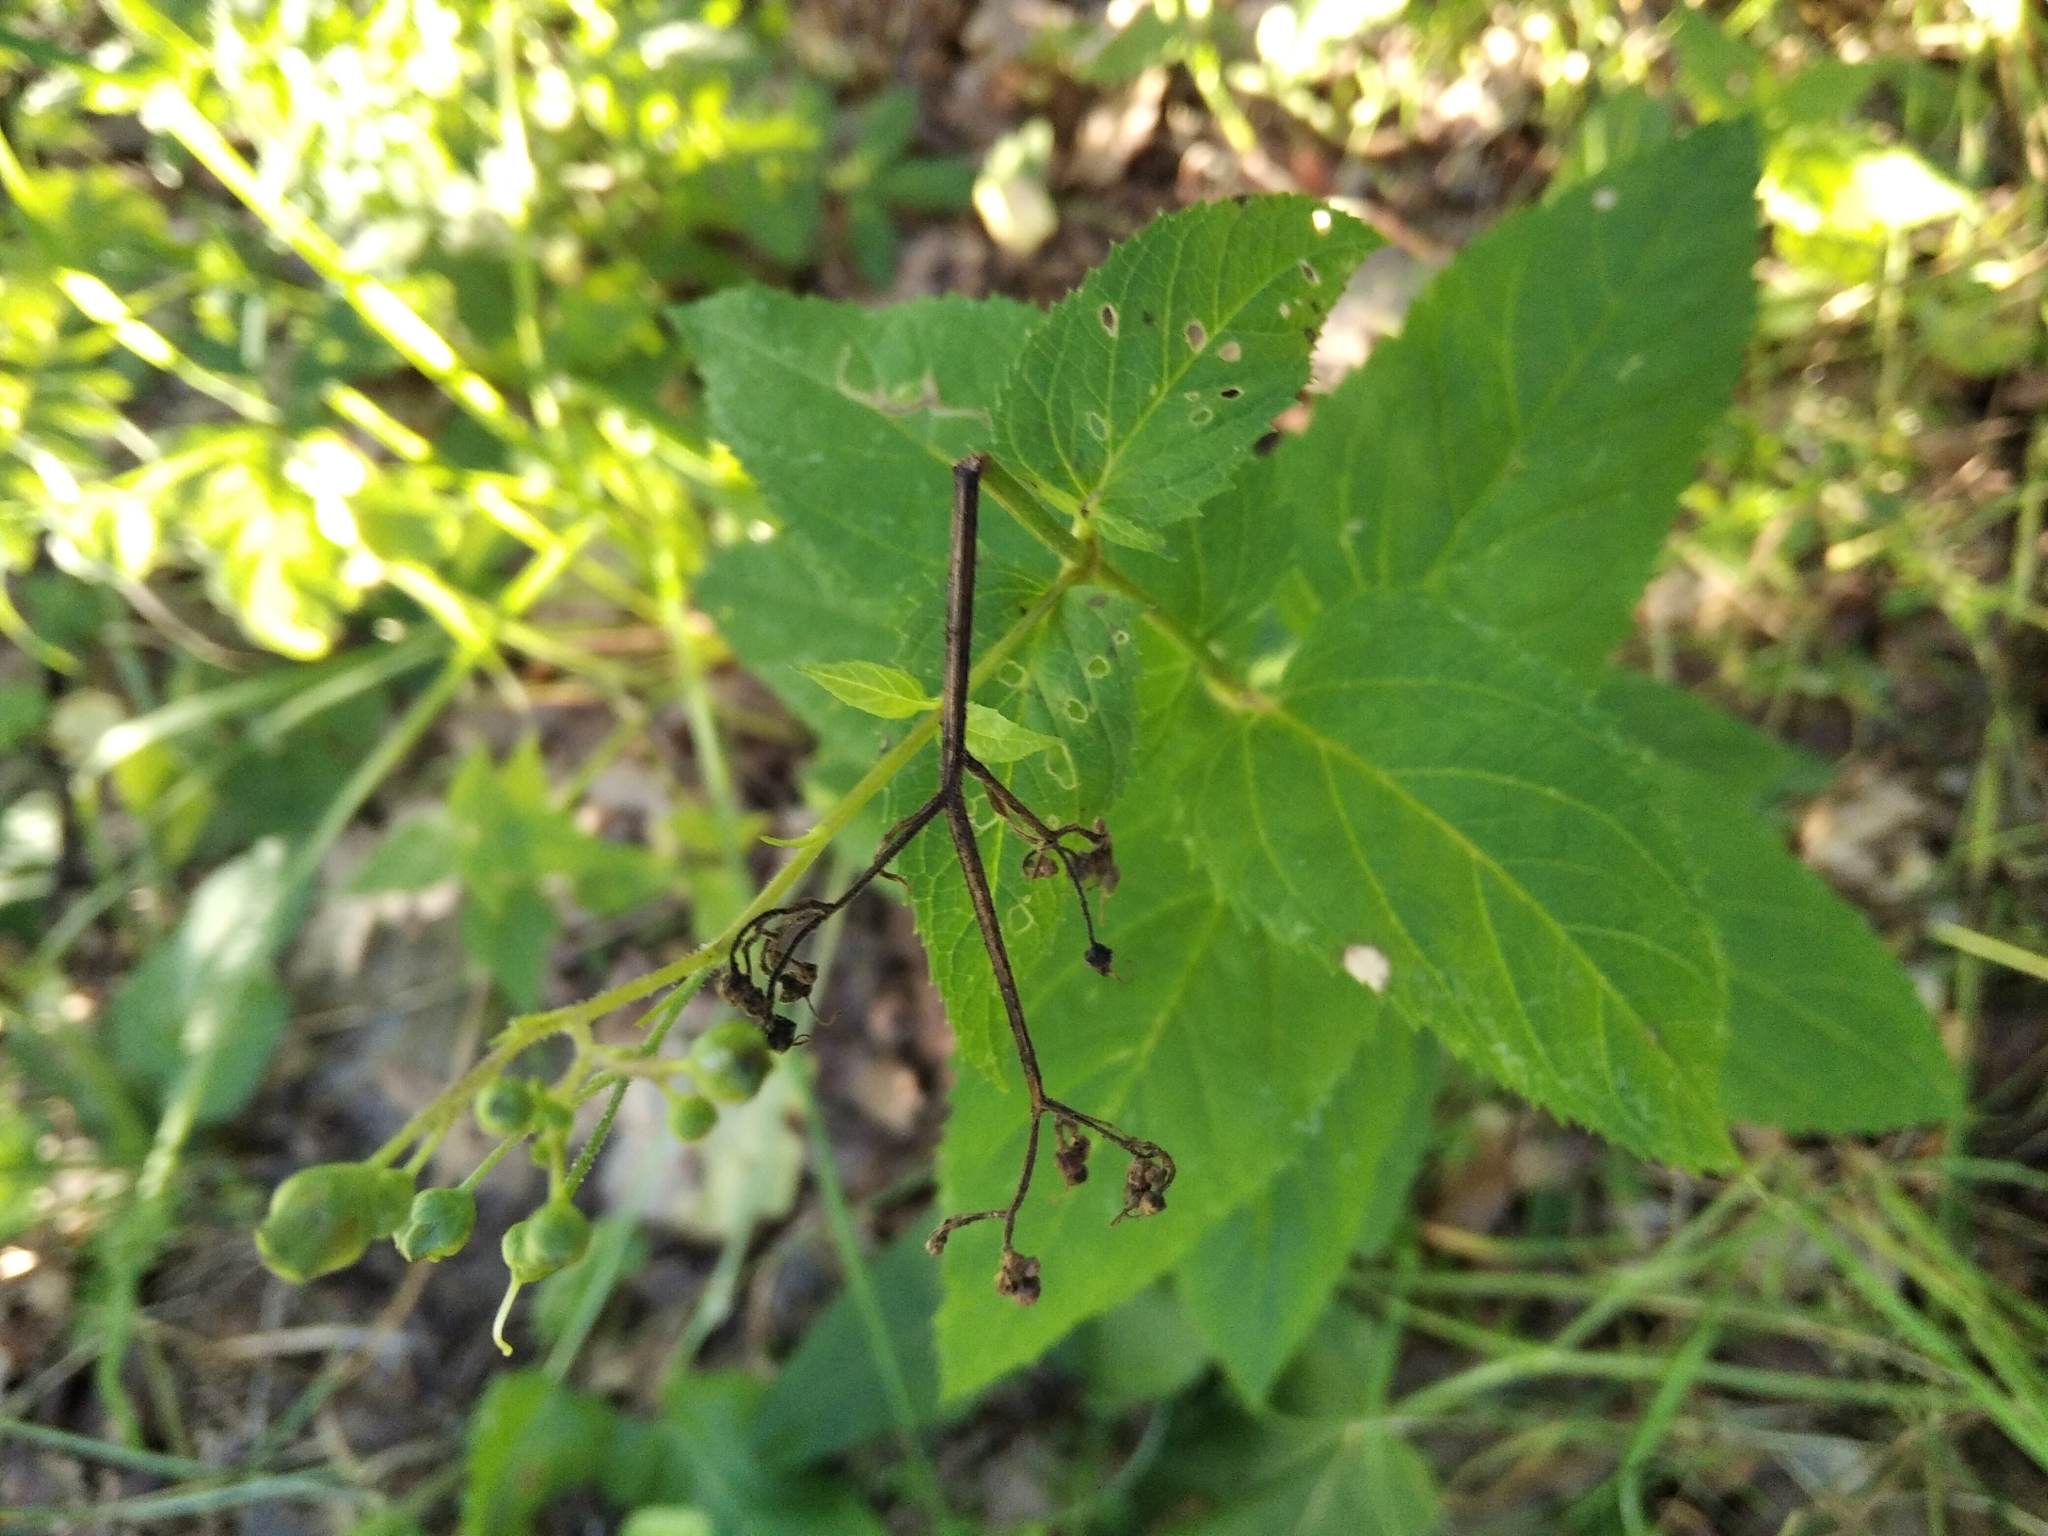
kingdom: Plantae
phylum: Tracheophyta
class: Magnoliopsida
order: Lamiales
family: Scrophulariaceae
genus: Scrophularia
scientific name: Scrophularia nodosa
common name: Common figwort
